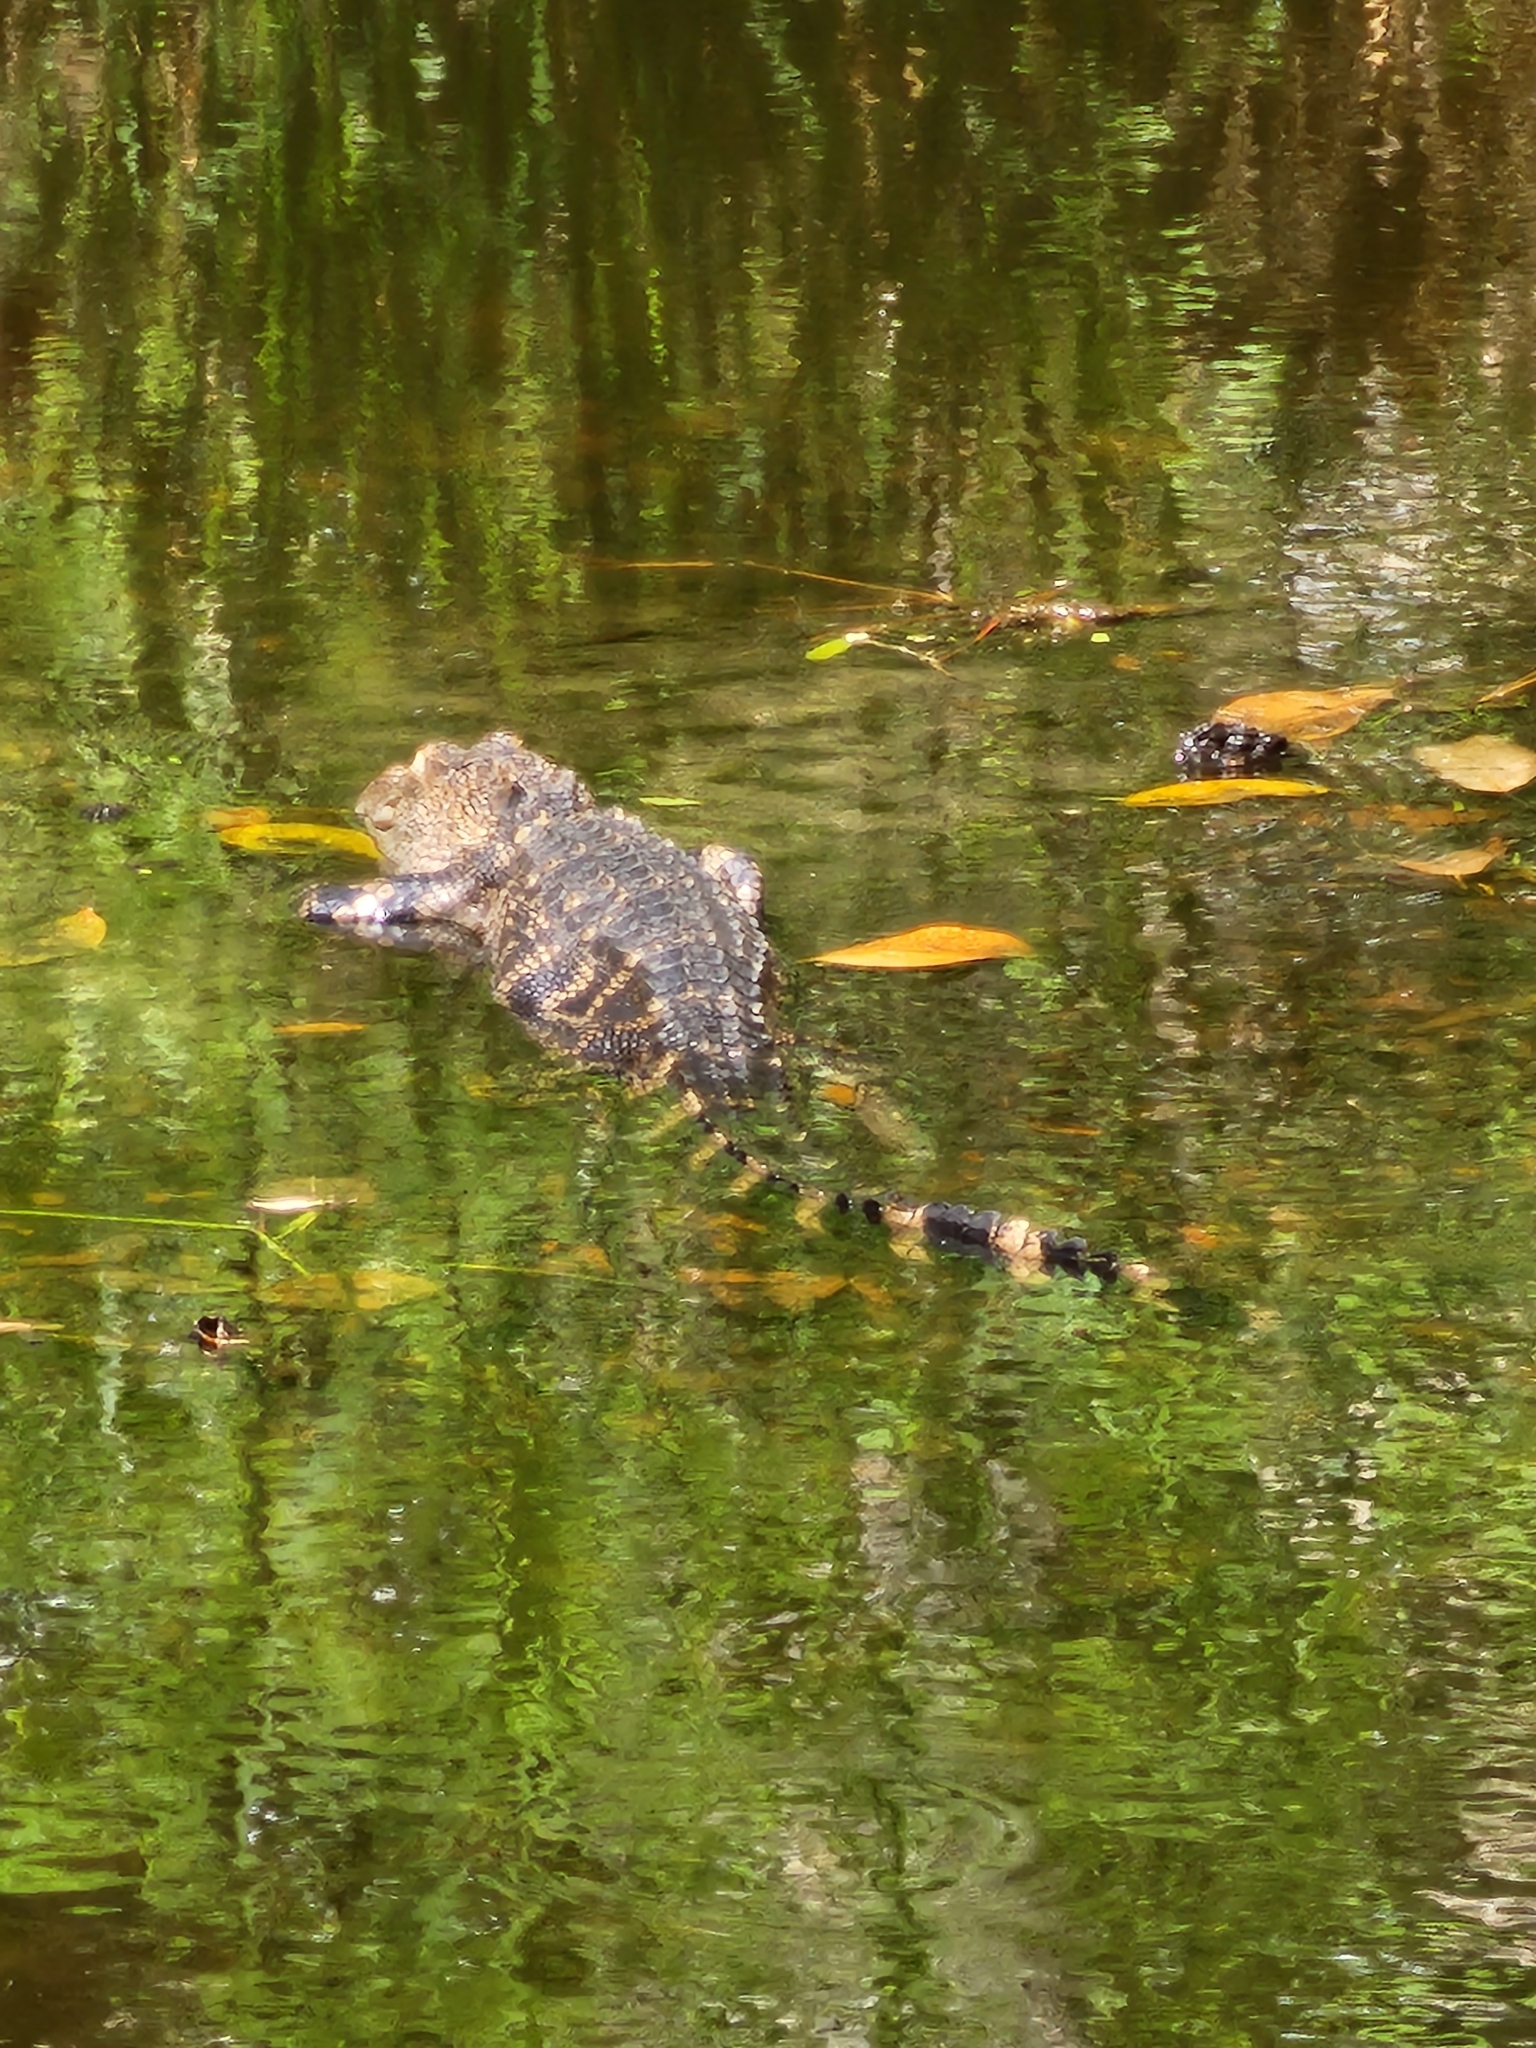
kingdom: Animalia
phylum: Chordata
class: Crocodylia
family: Alligatoridae
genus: Alligator
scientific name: Alligator mississippiensis
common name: American alligator
